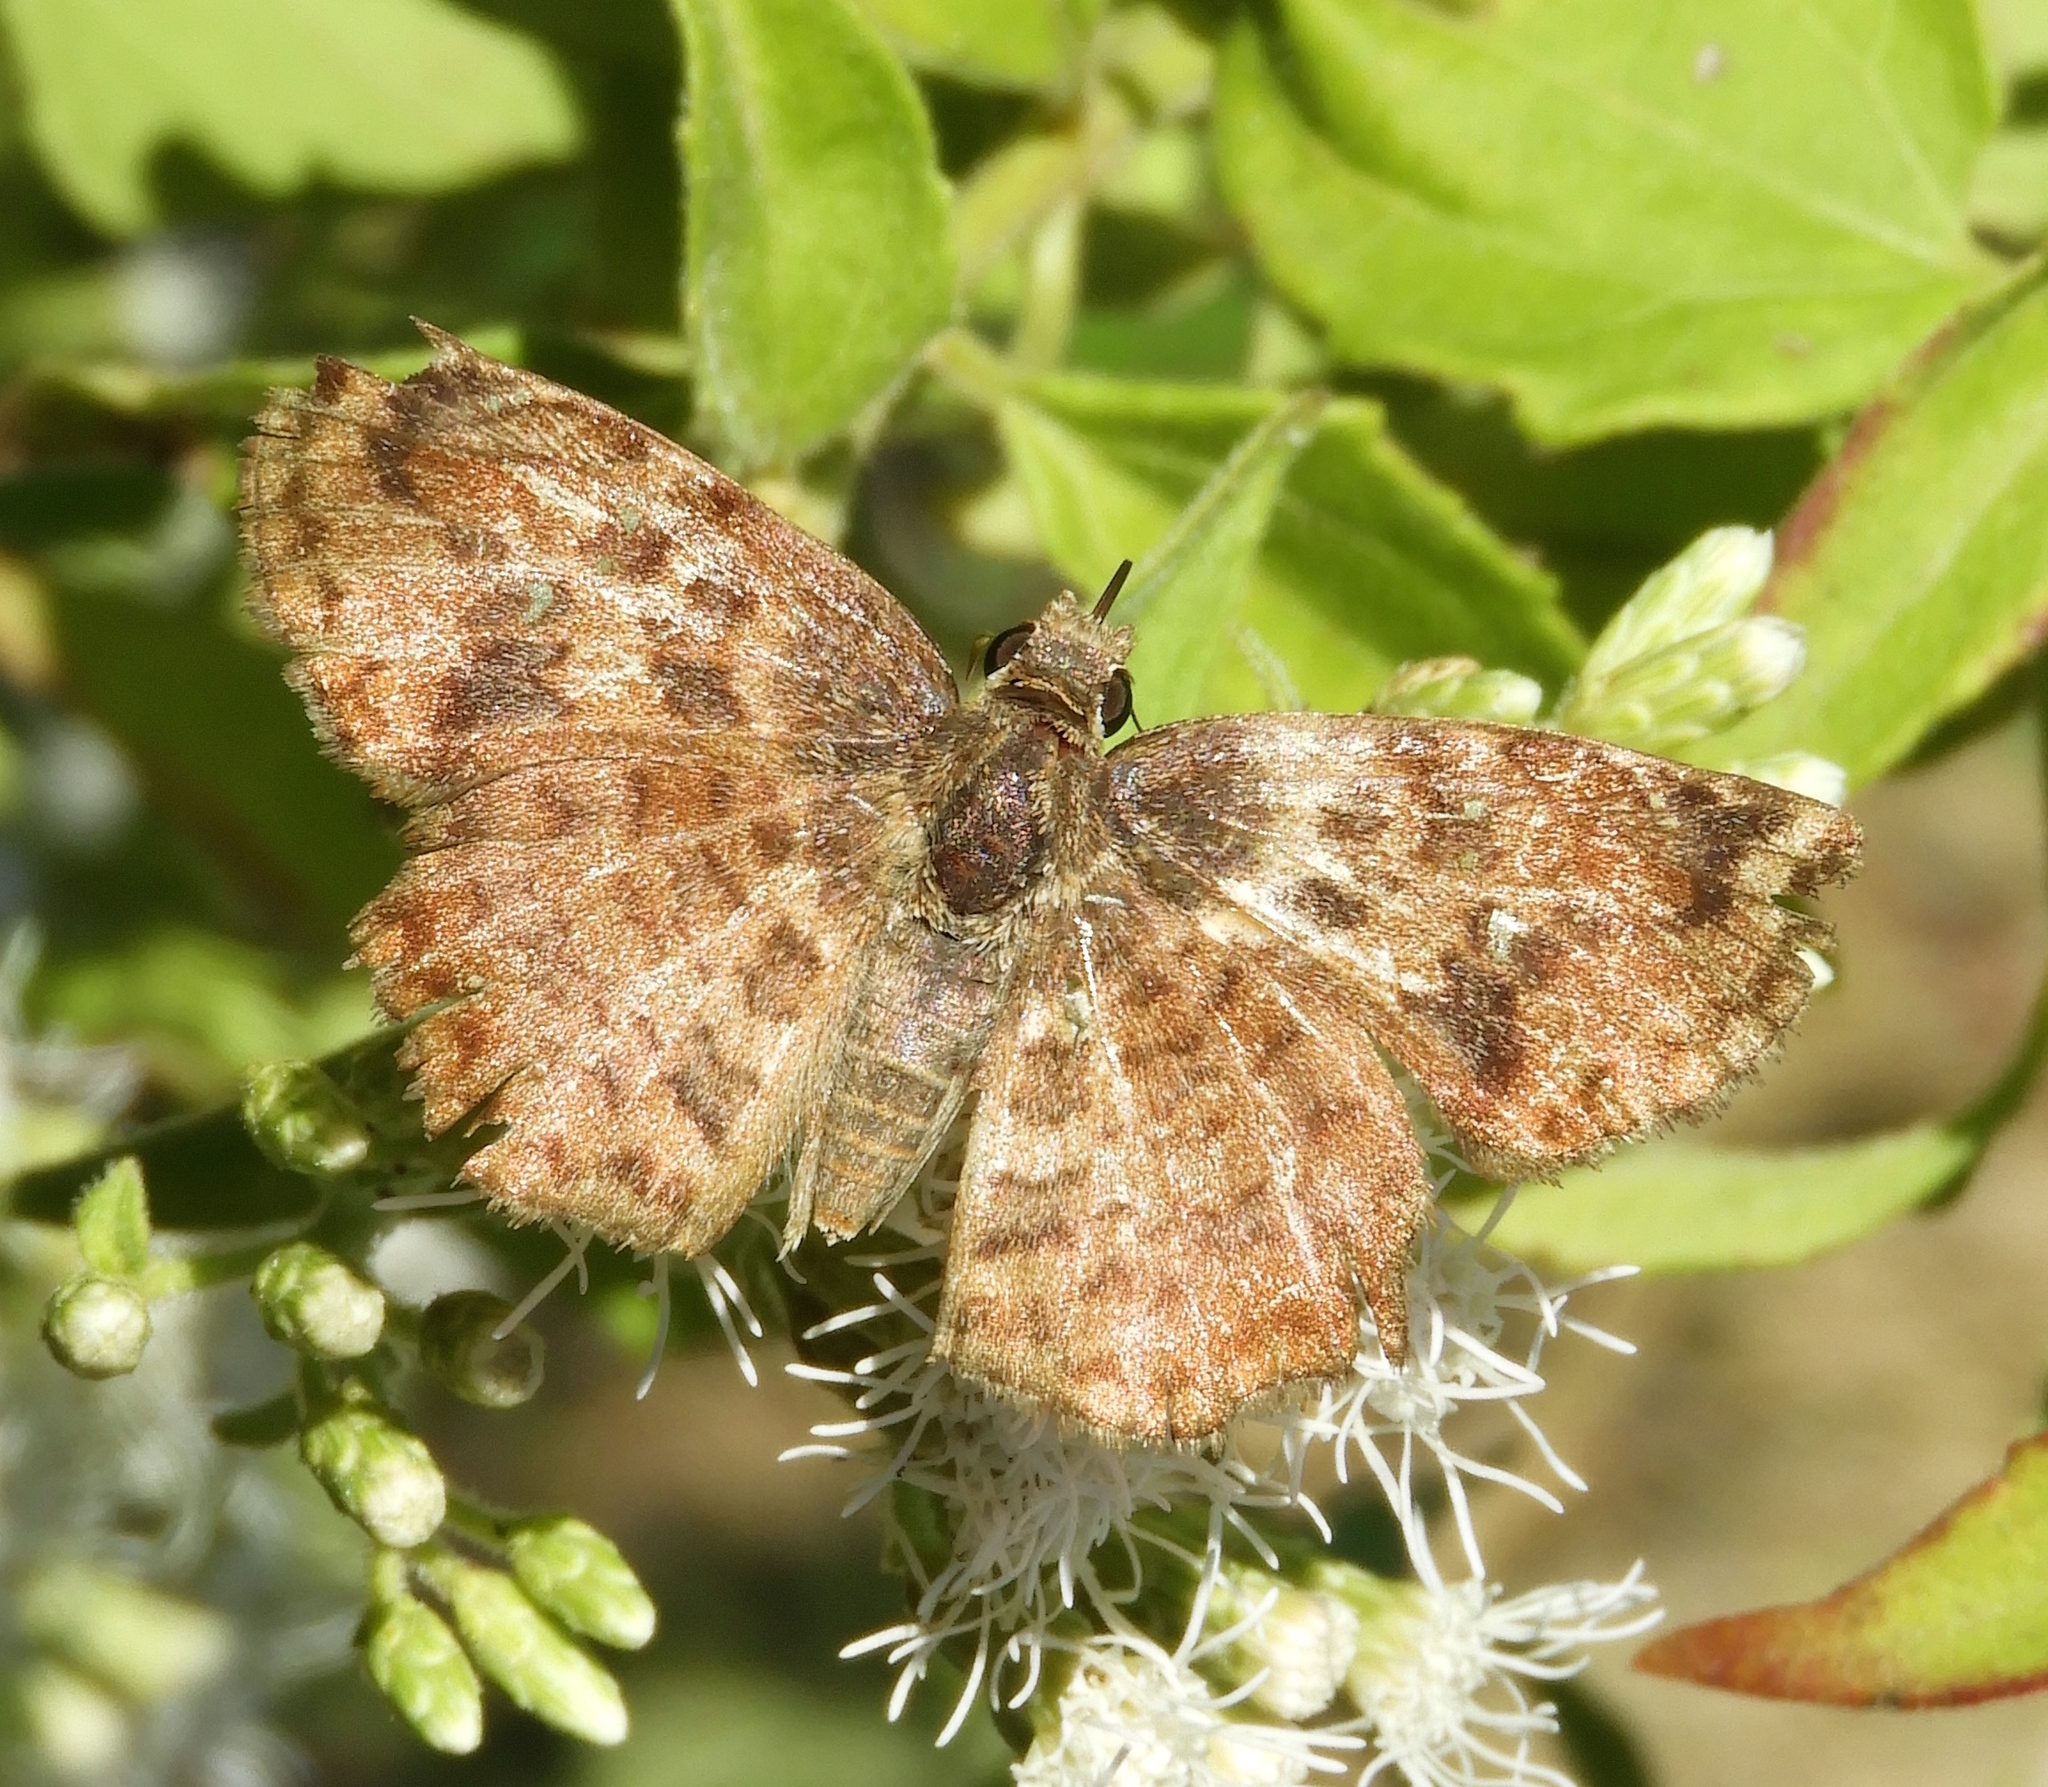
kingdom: Animalia
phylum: Arthropoda
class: Insecta
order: Lepidoptera
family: Hesperiidae
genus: Antigonus
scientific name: Antigonus erosus
